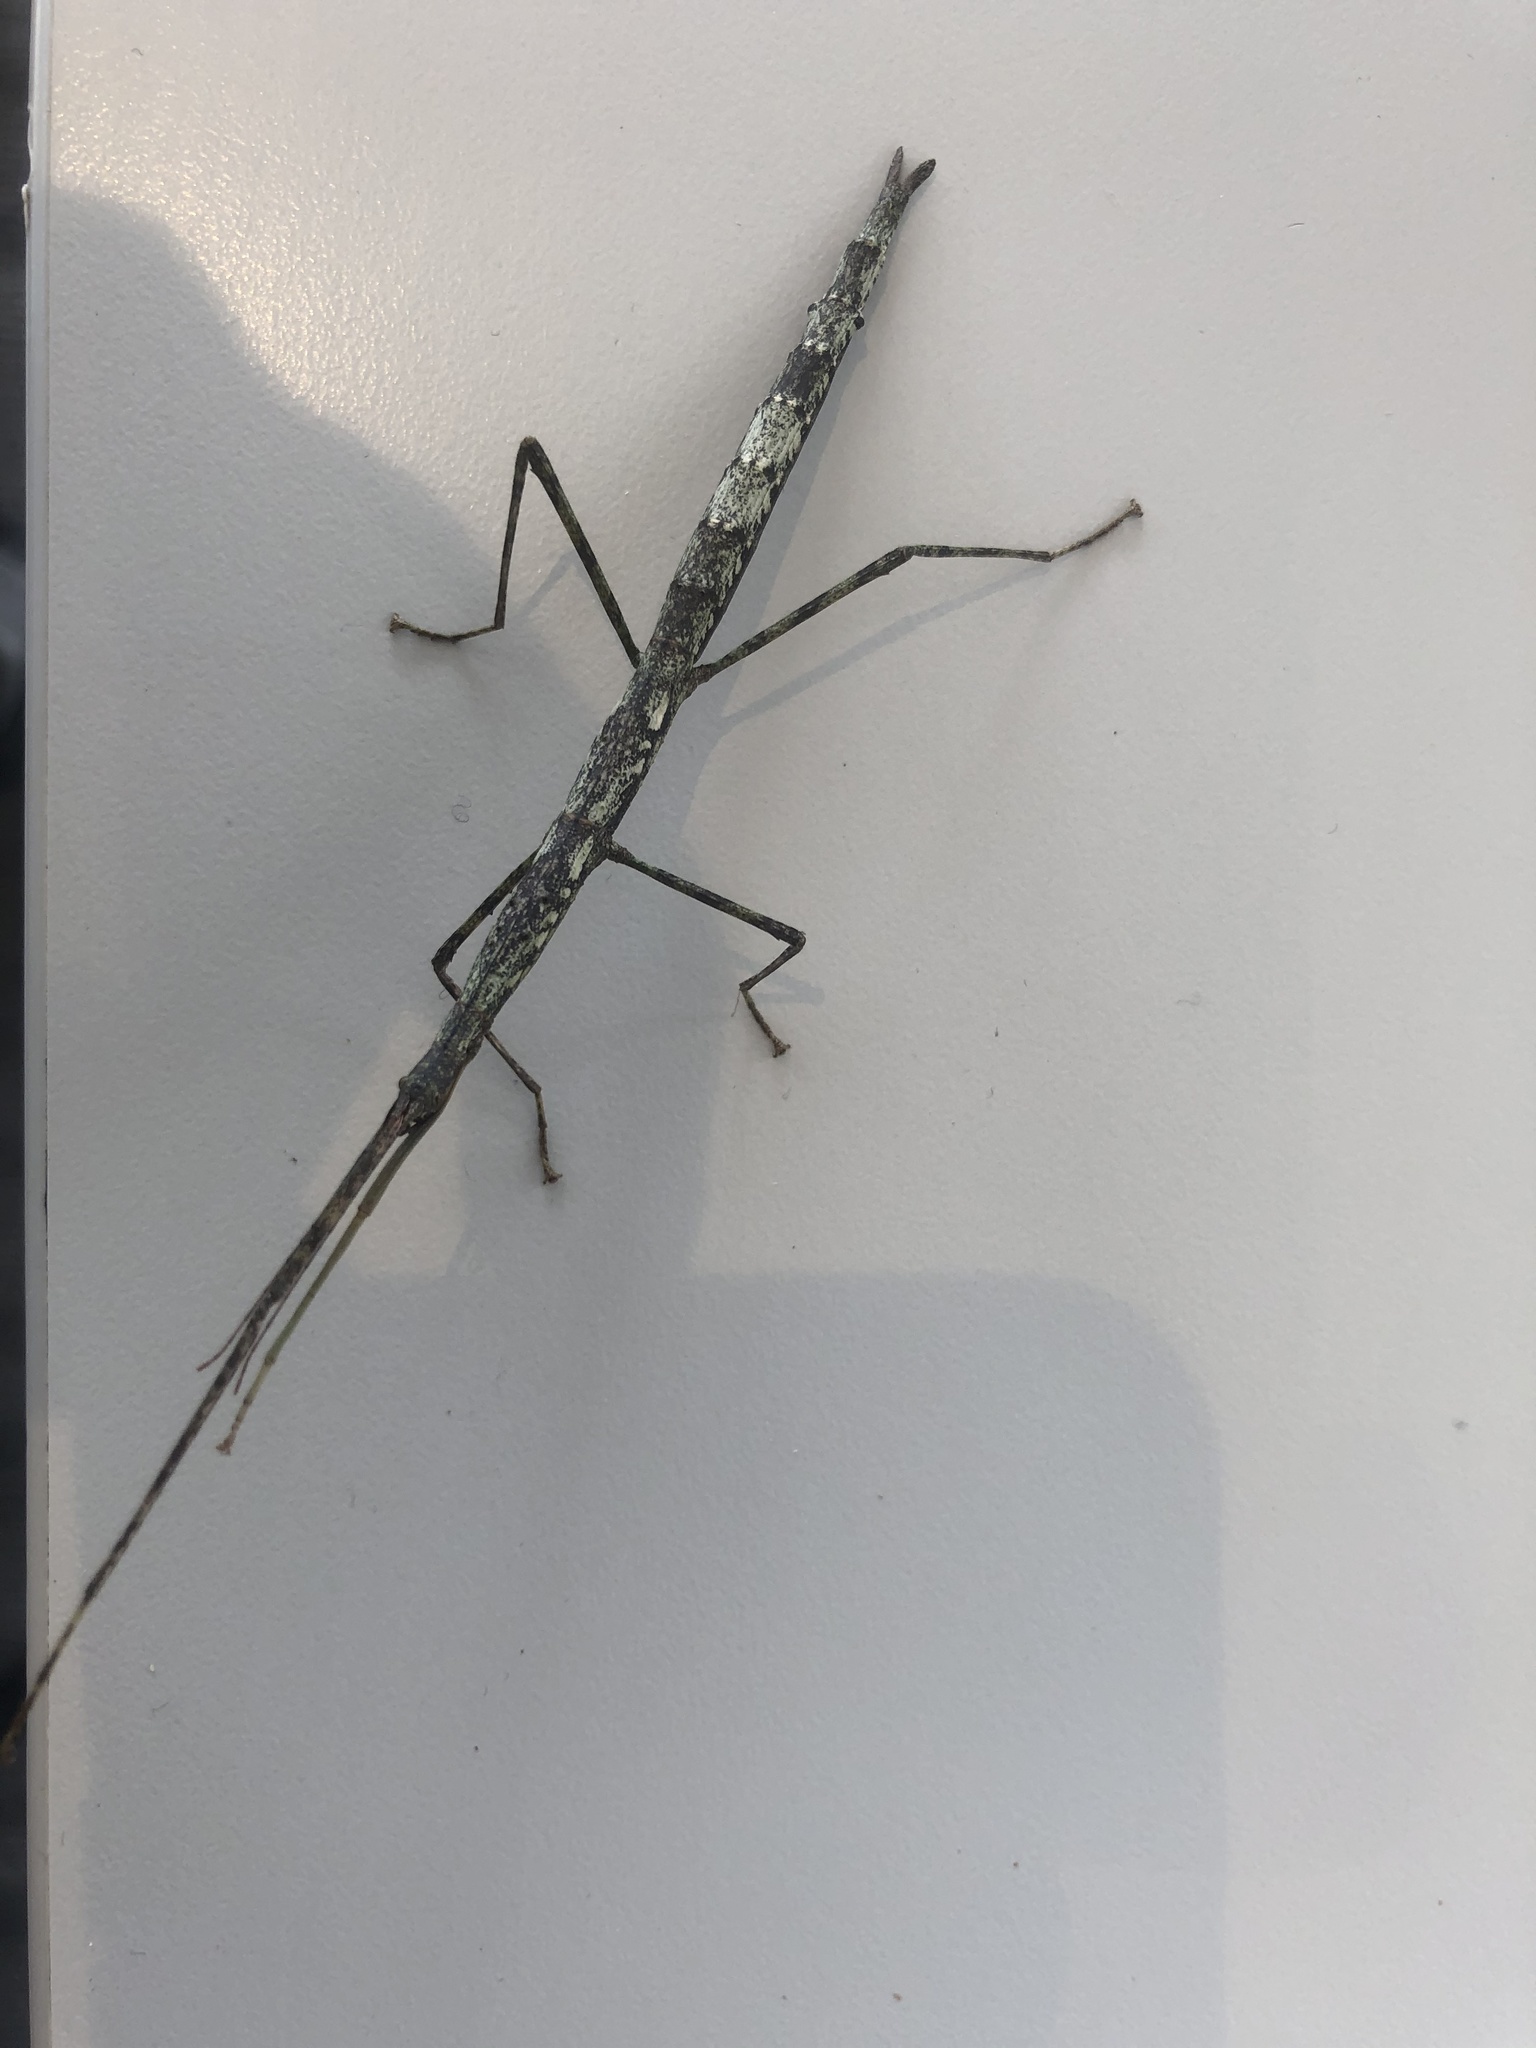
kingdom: Animalia
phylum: Arthropoda
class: Insecta
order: Phasmida
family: Phasmatidae
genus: Clitarchus
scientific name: Clitarchus hookeri
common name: Smooth stick insect
